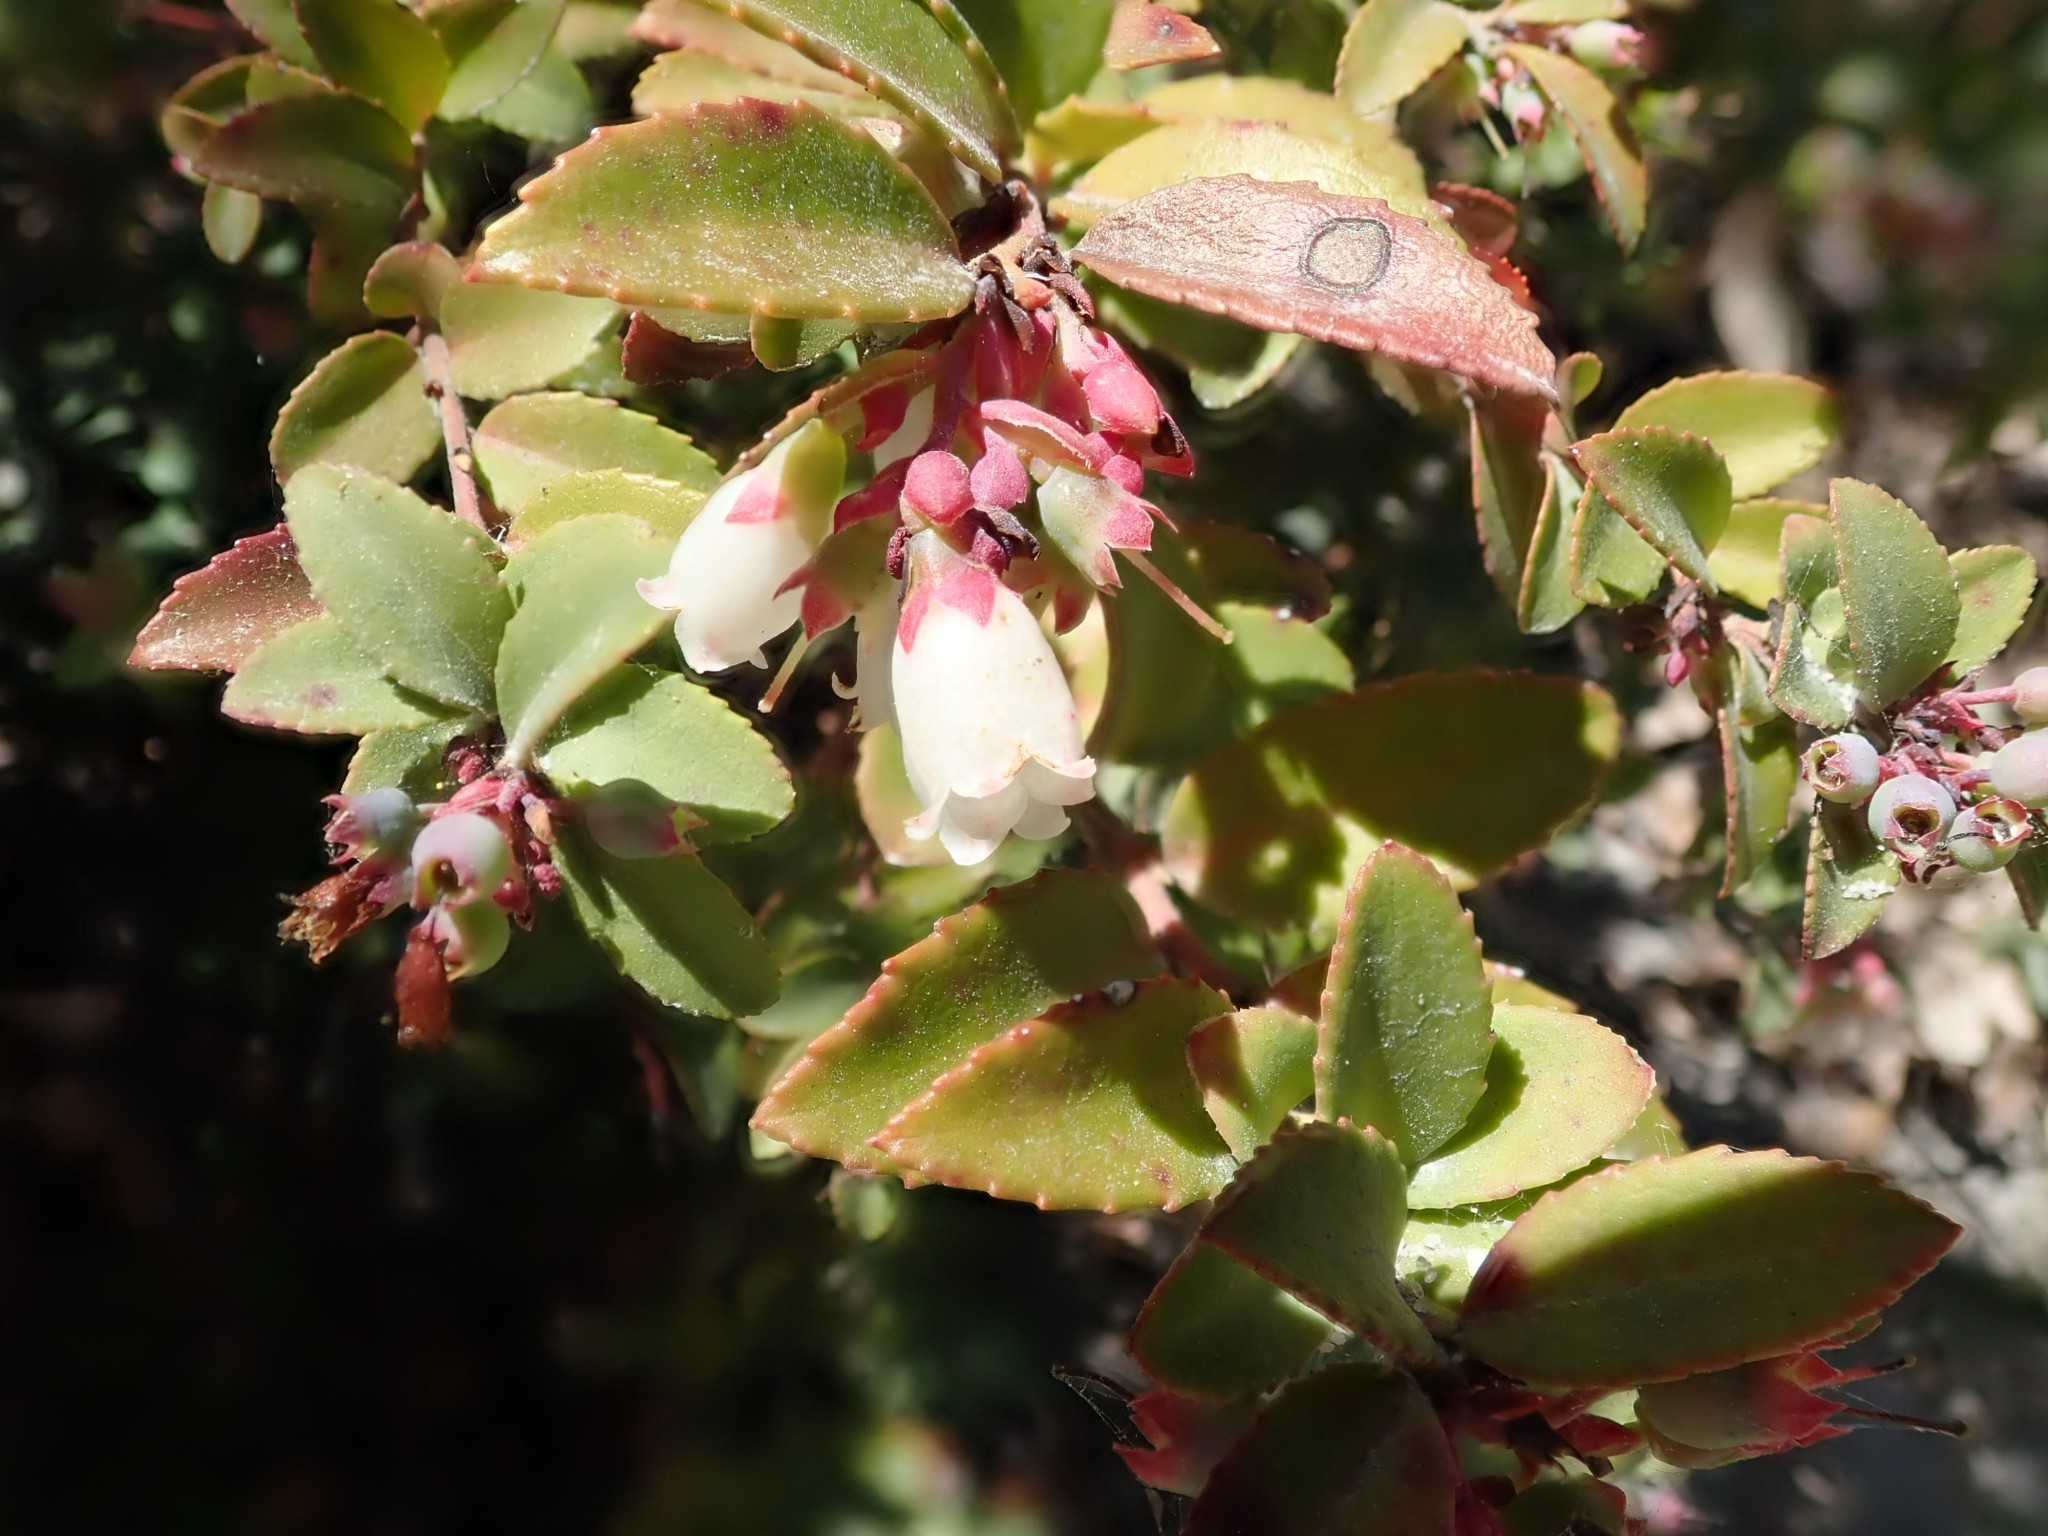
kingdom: Plantae
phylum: Tracheophyta
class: Magnoliopsida
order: Ericales
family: Ericaceae
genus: Vaccinium
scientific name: Vaccinium ovatum
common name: California-huckleberry
